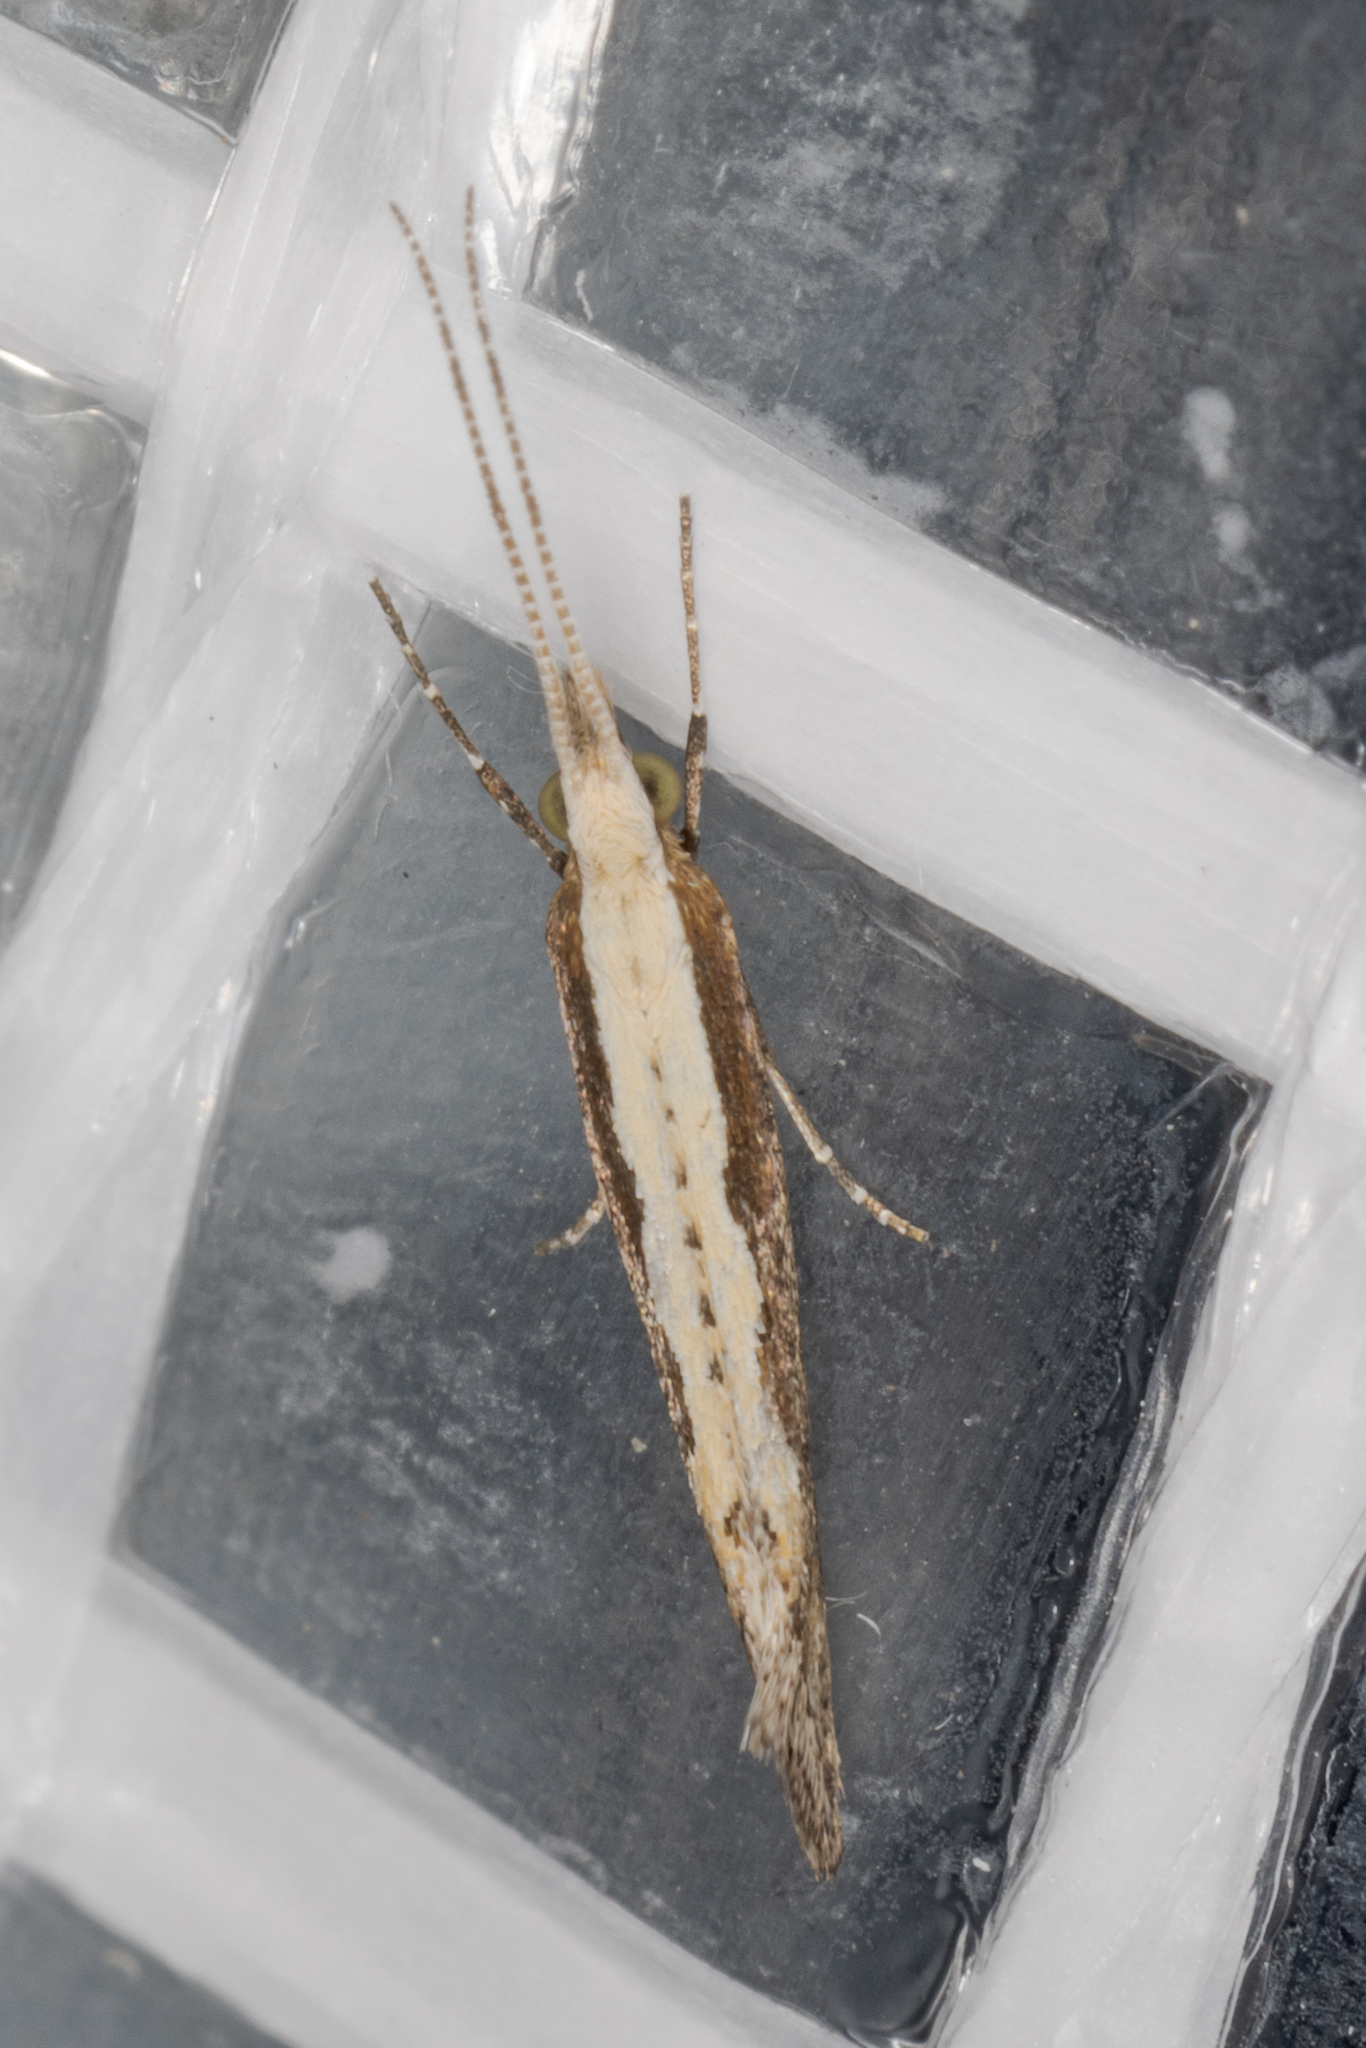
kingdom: Animalia
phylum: Arthropoda
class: Insecta
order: Lepidoptera
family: Plutellidae
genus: Plutella
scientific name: Plutella xylostella
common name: Diamond-back moth
